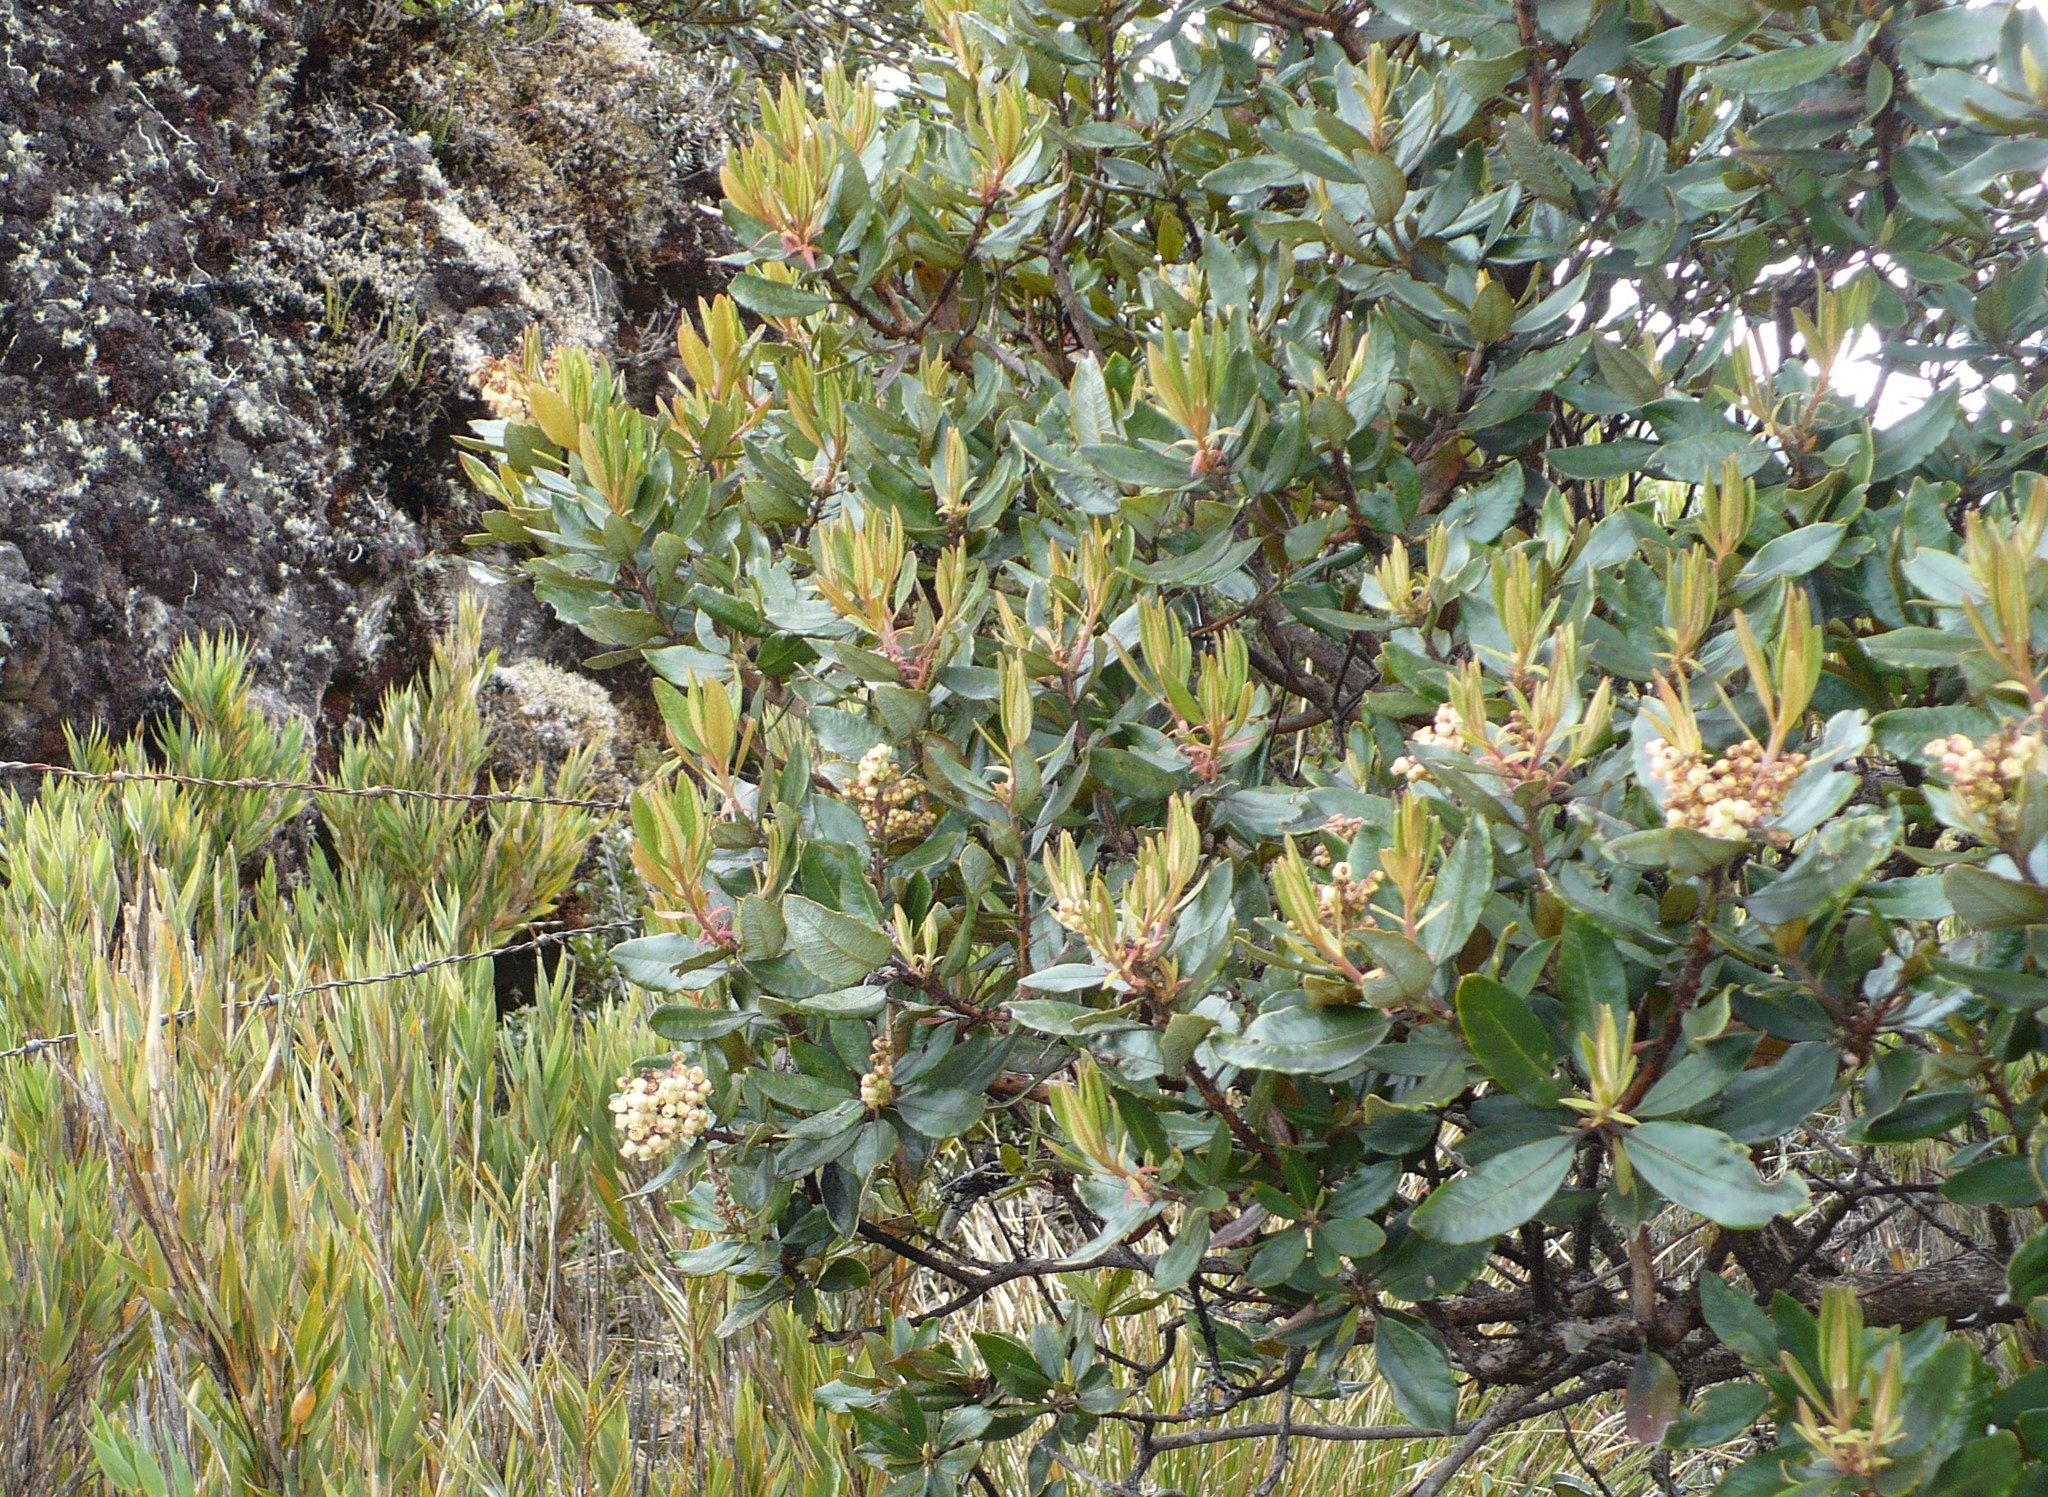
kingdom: Plantae
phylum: Tracheophyta
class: Magnoliopsida
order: Ericales
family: Ericaceae
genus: Comarostaphylis
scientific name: Comarostaphylis arbutoides
